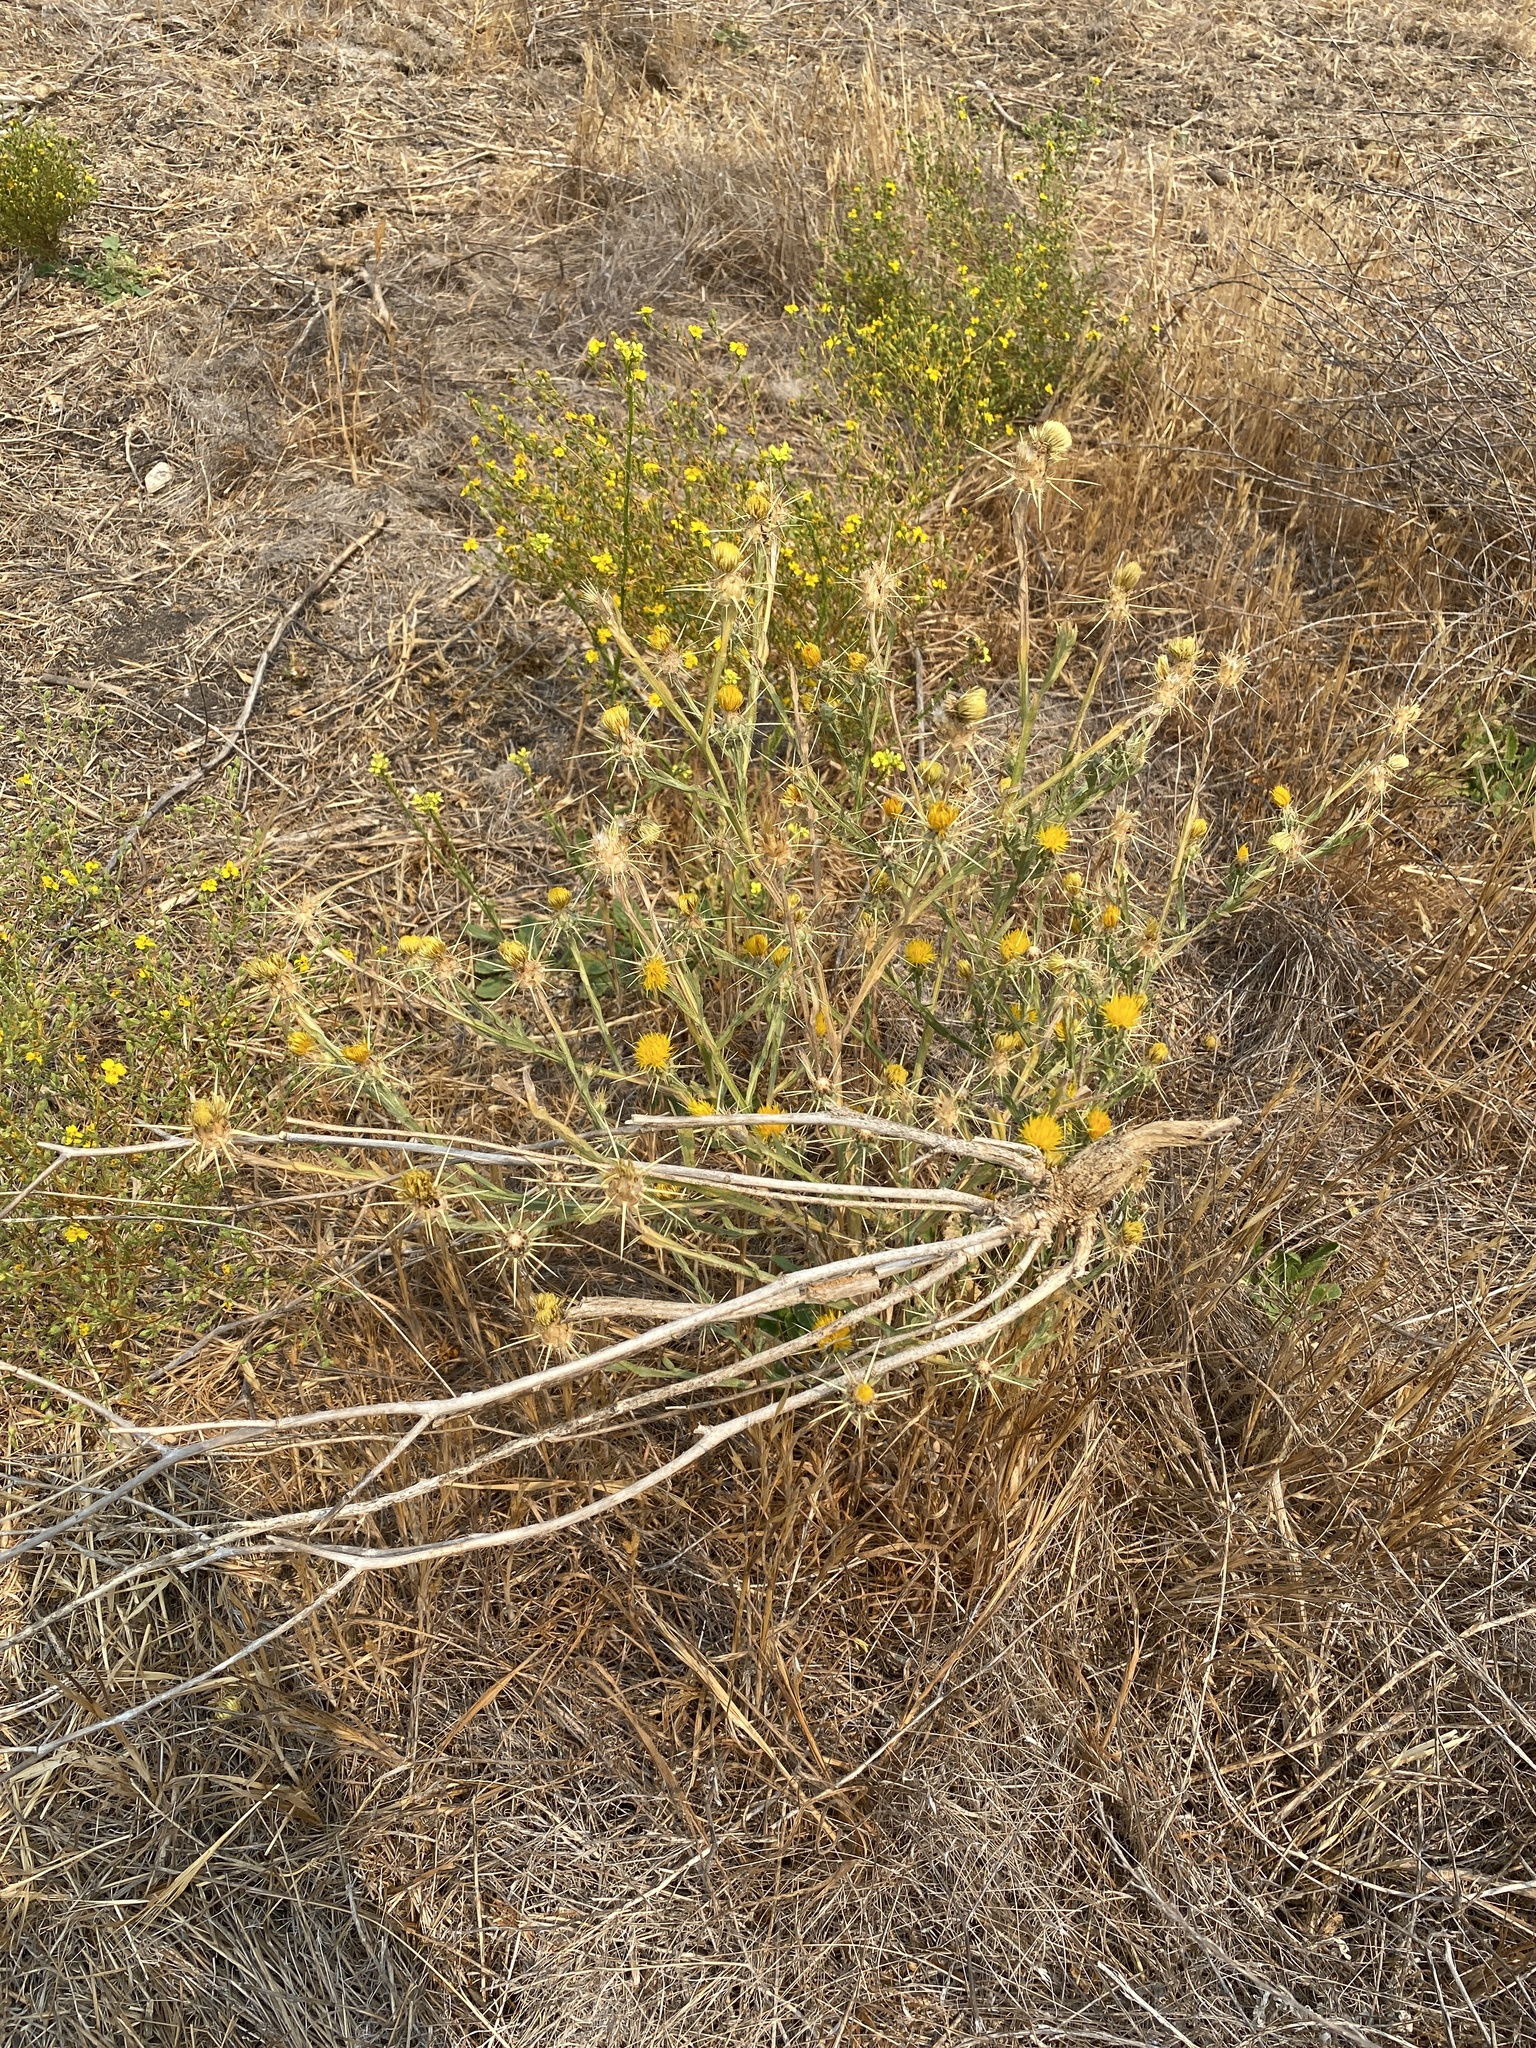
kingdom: Plantae
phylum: Tracheophyta
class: Magnoliopsida
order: Asterales
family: Asteraceae
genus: Centaurea
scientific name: Centaurea solstitialis
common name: Yellow star-thistle
